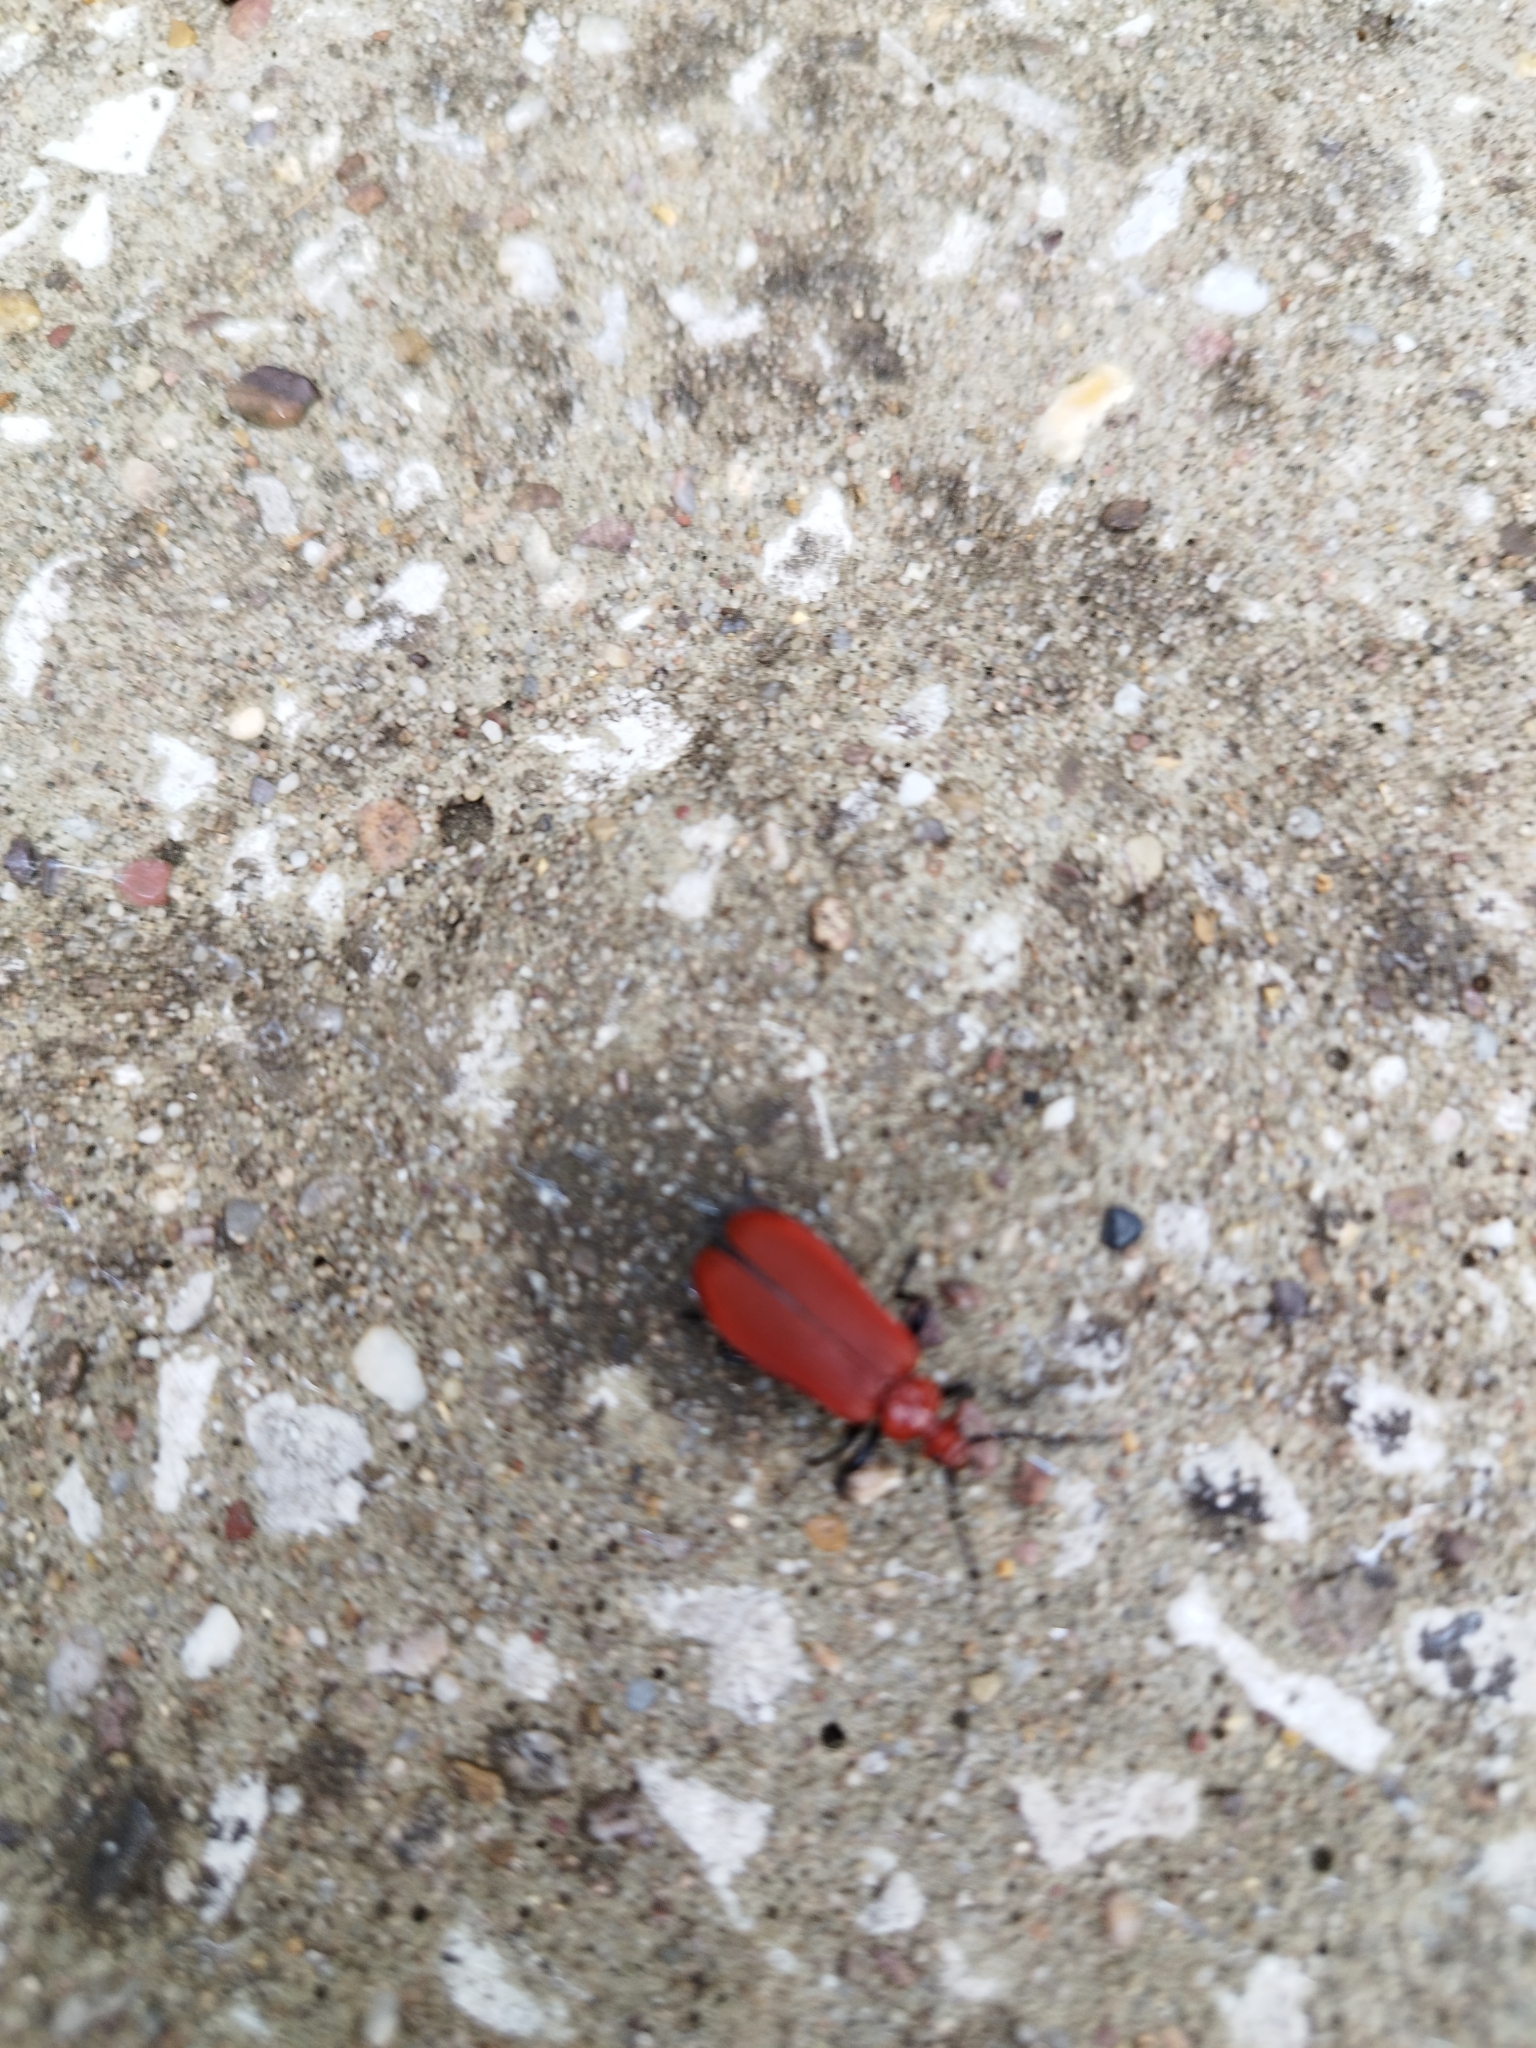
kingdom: Animalia
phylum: Arthropoda
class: Insecta
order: Coleoptera
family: Pyrochroidae
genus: Pyrochroa
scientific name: Pyrochroa serraticornis
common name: Red-headed cardinal beetle
